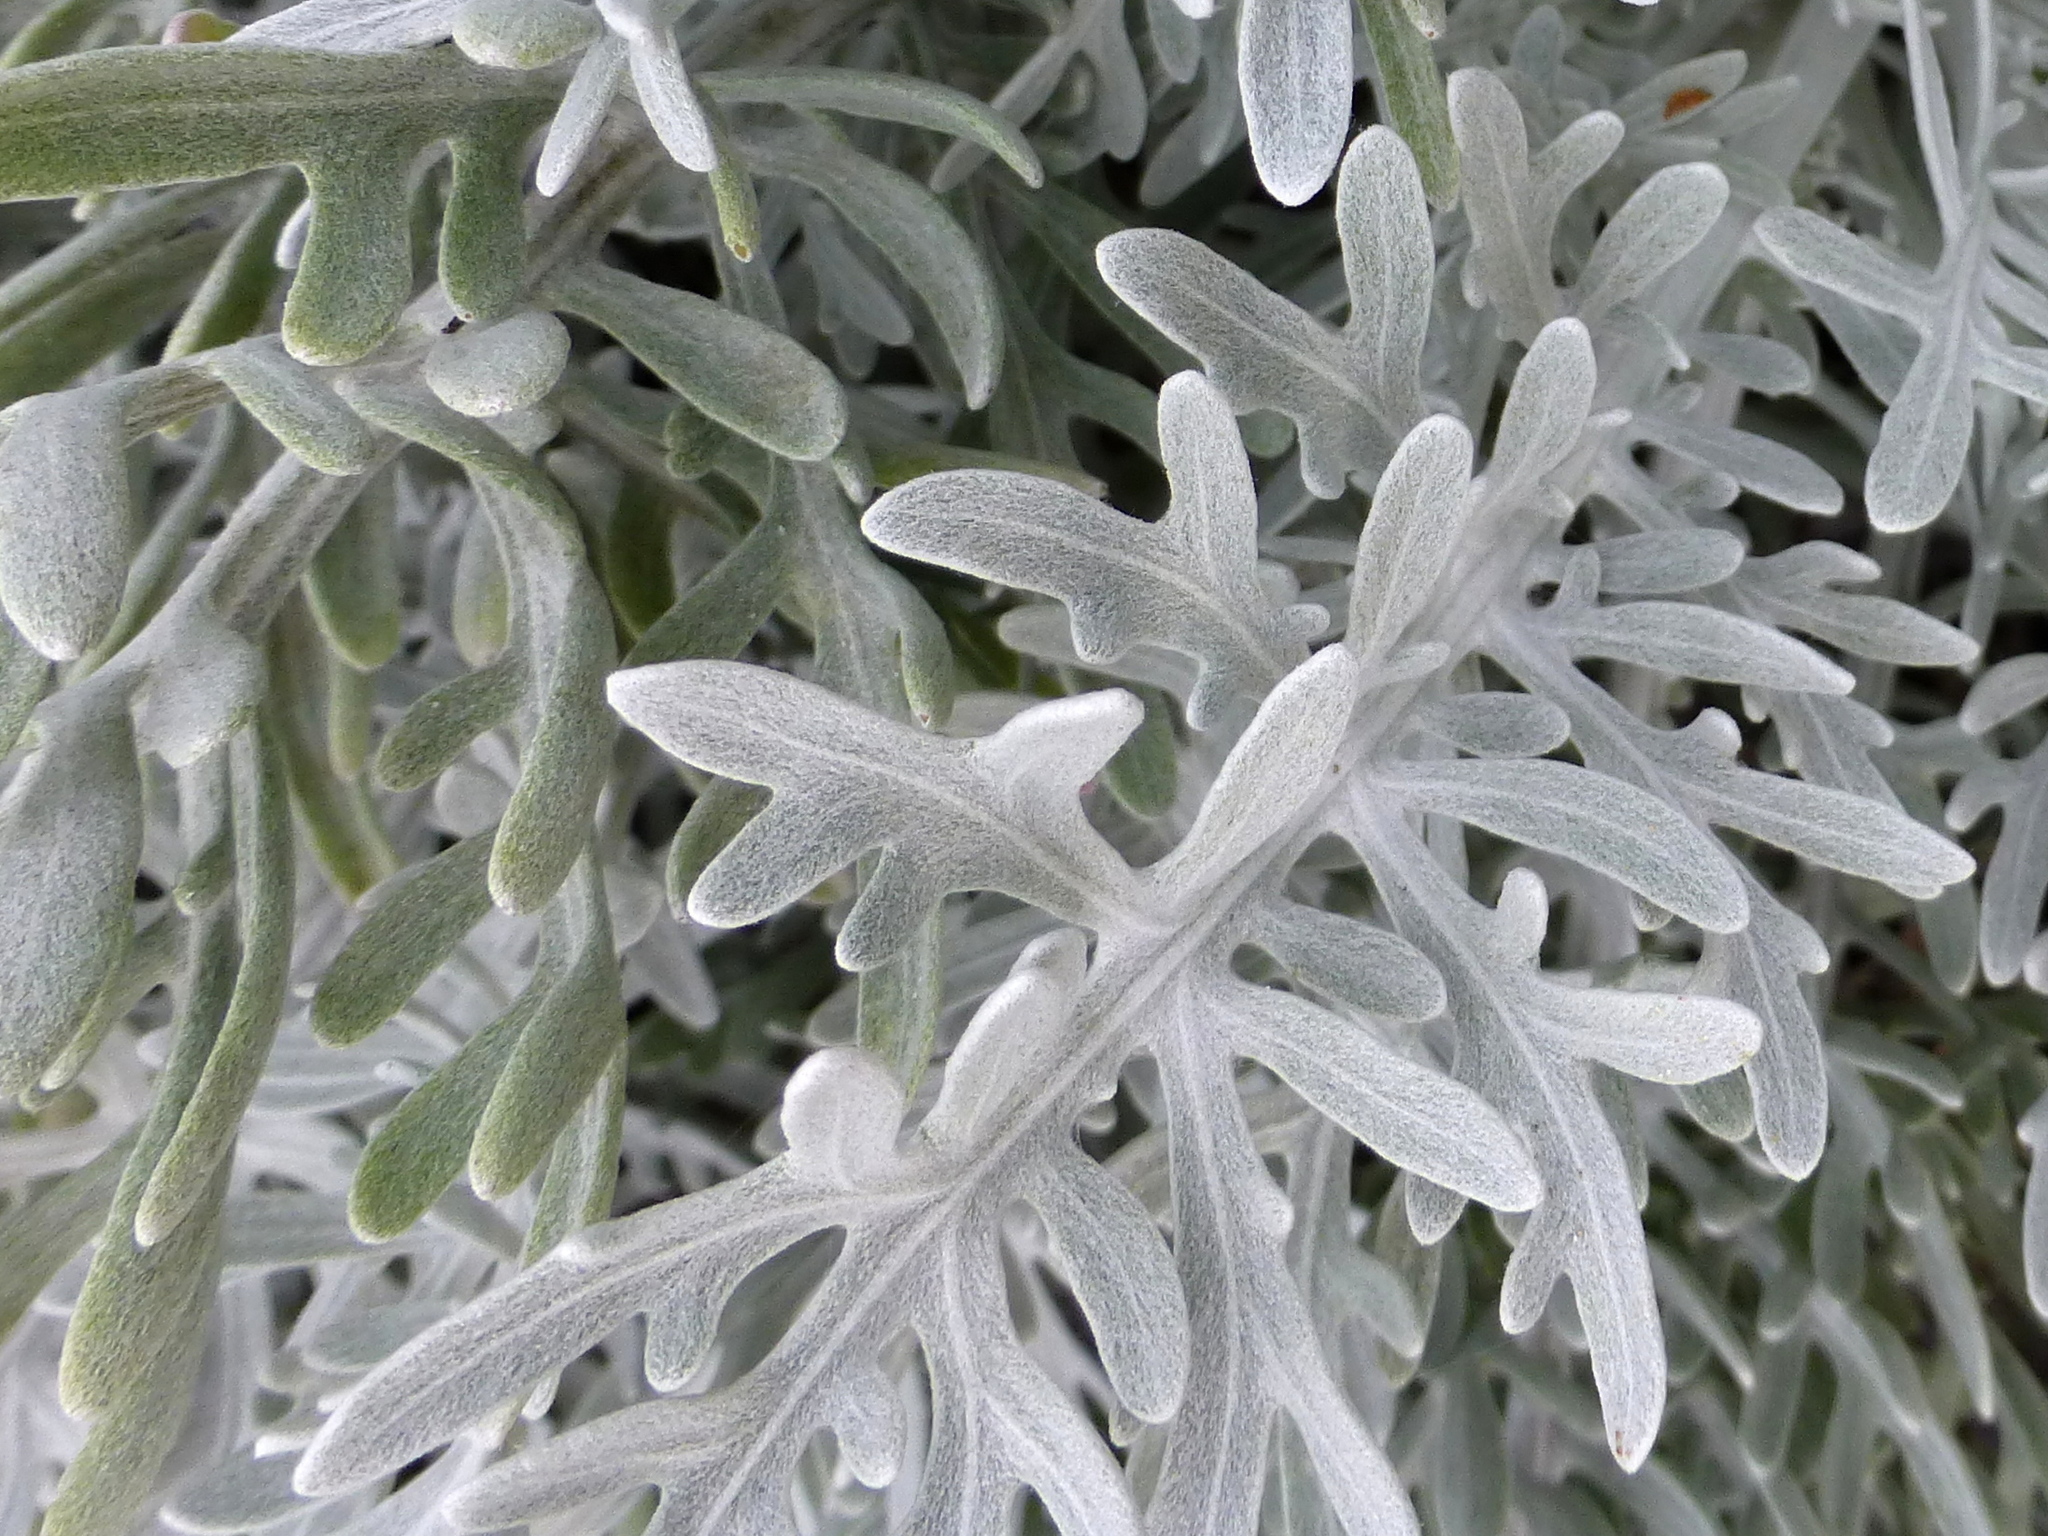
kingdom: Plantae
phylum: Tracheophyta
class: Magnoliopsida
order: Asterales
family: Asteraceae
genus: Centaurea
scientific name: Centaurea cineraria
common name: Dusty miller
